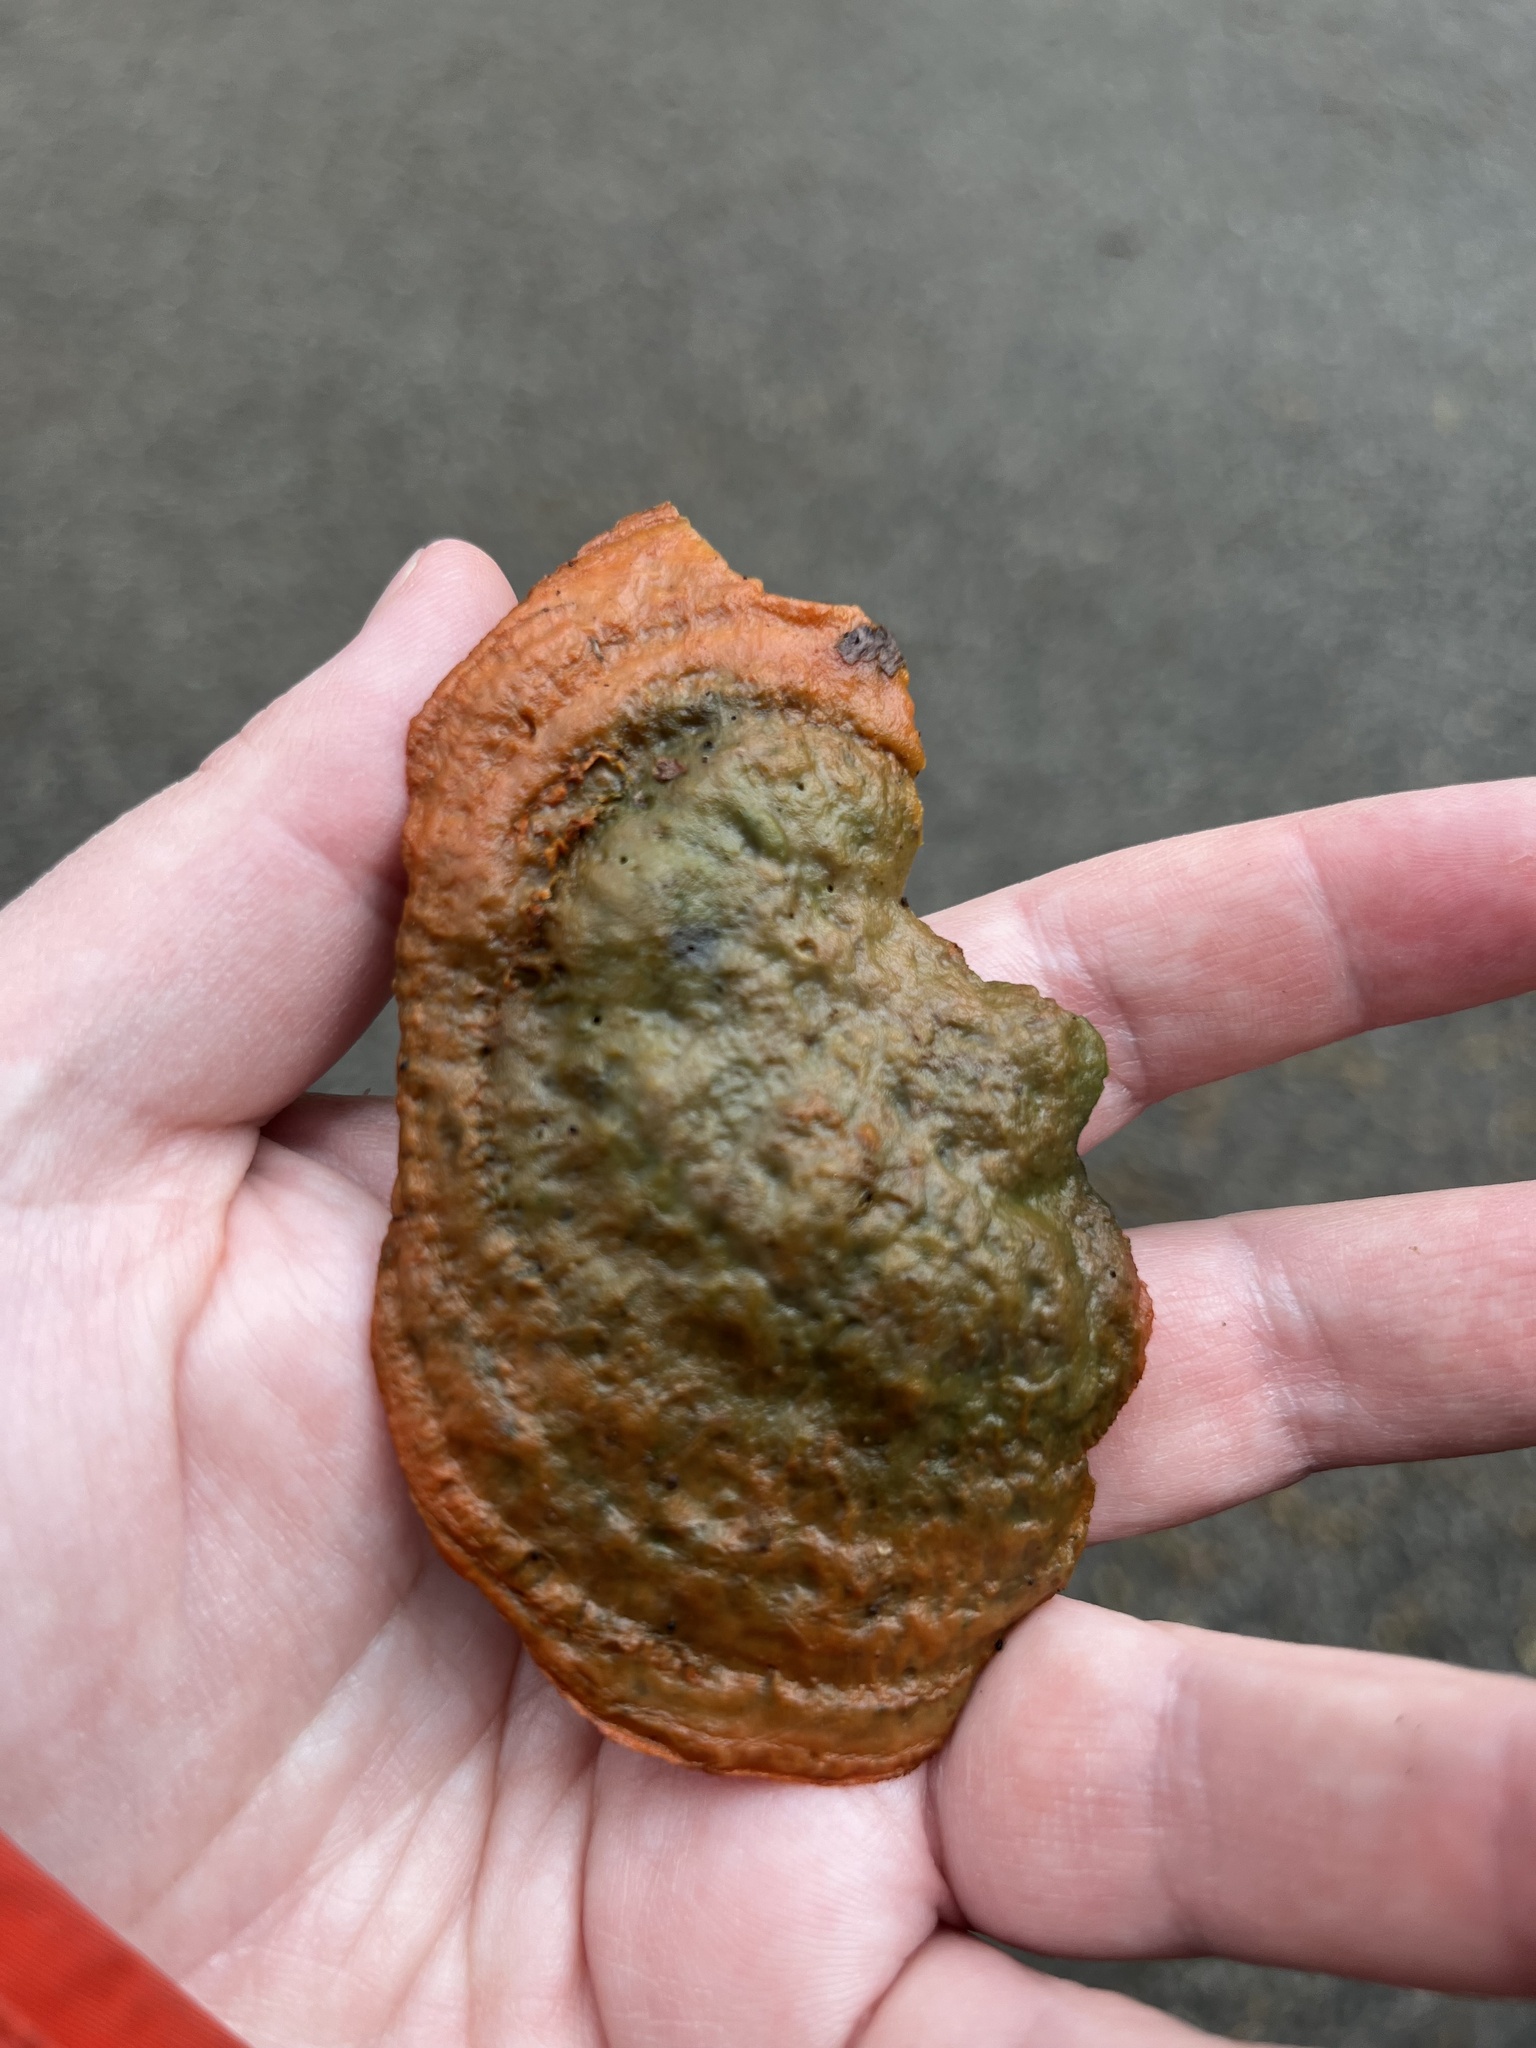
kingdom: Fungi
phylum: Basidiomycota
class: Agaricomycetes
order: Polyporales
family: Polyporaceae
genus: Trametes
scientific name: Trametes cinnabarina
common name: Northern cinnabar polypore
